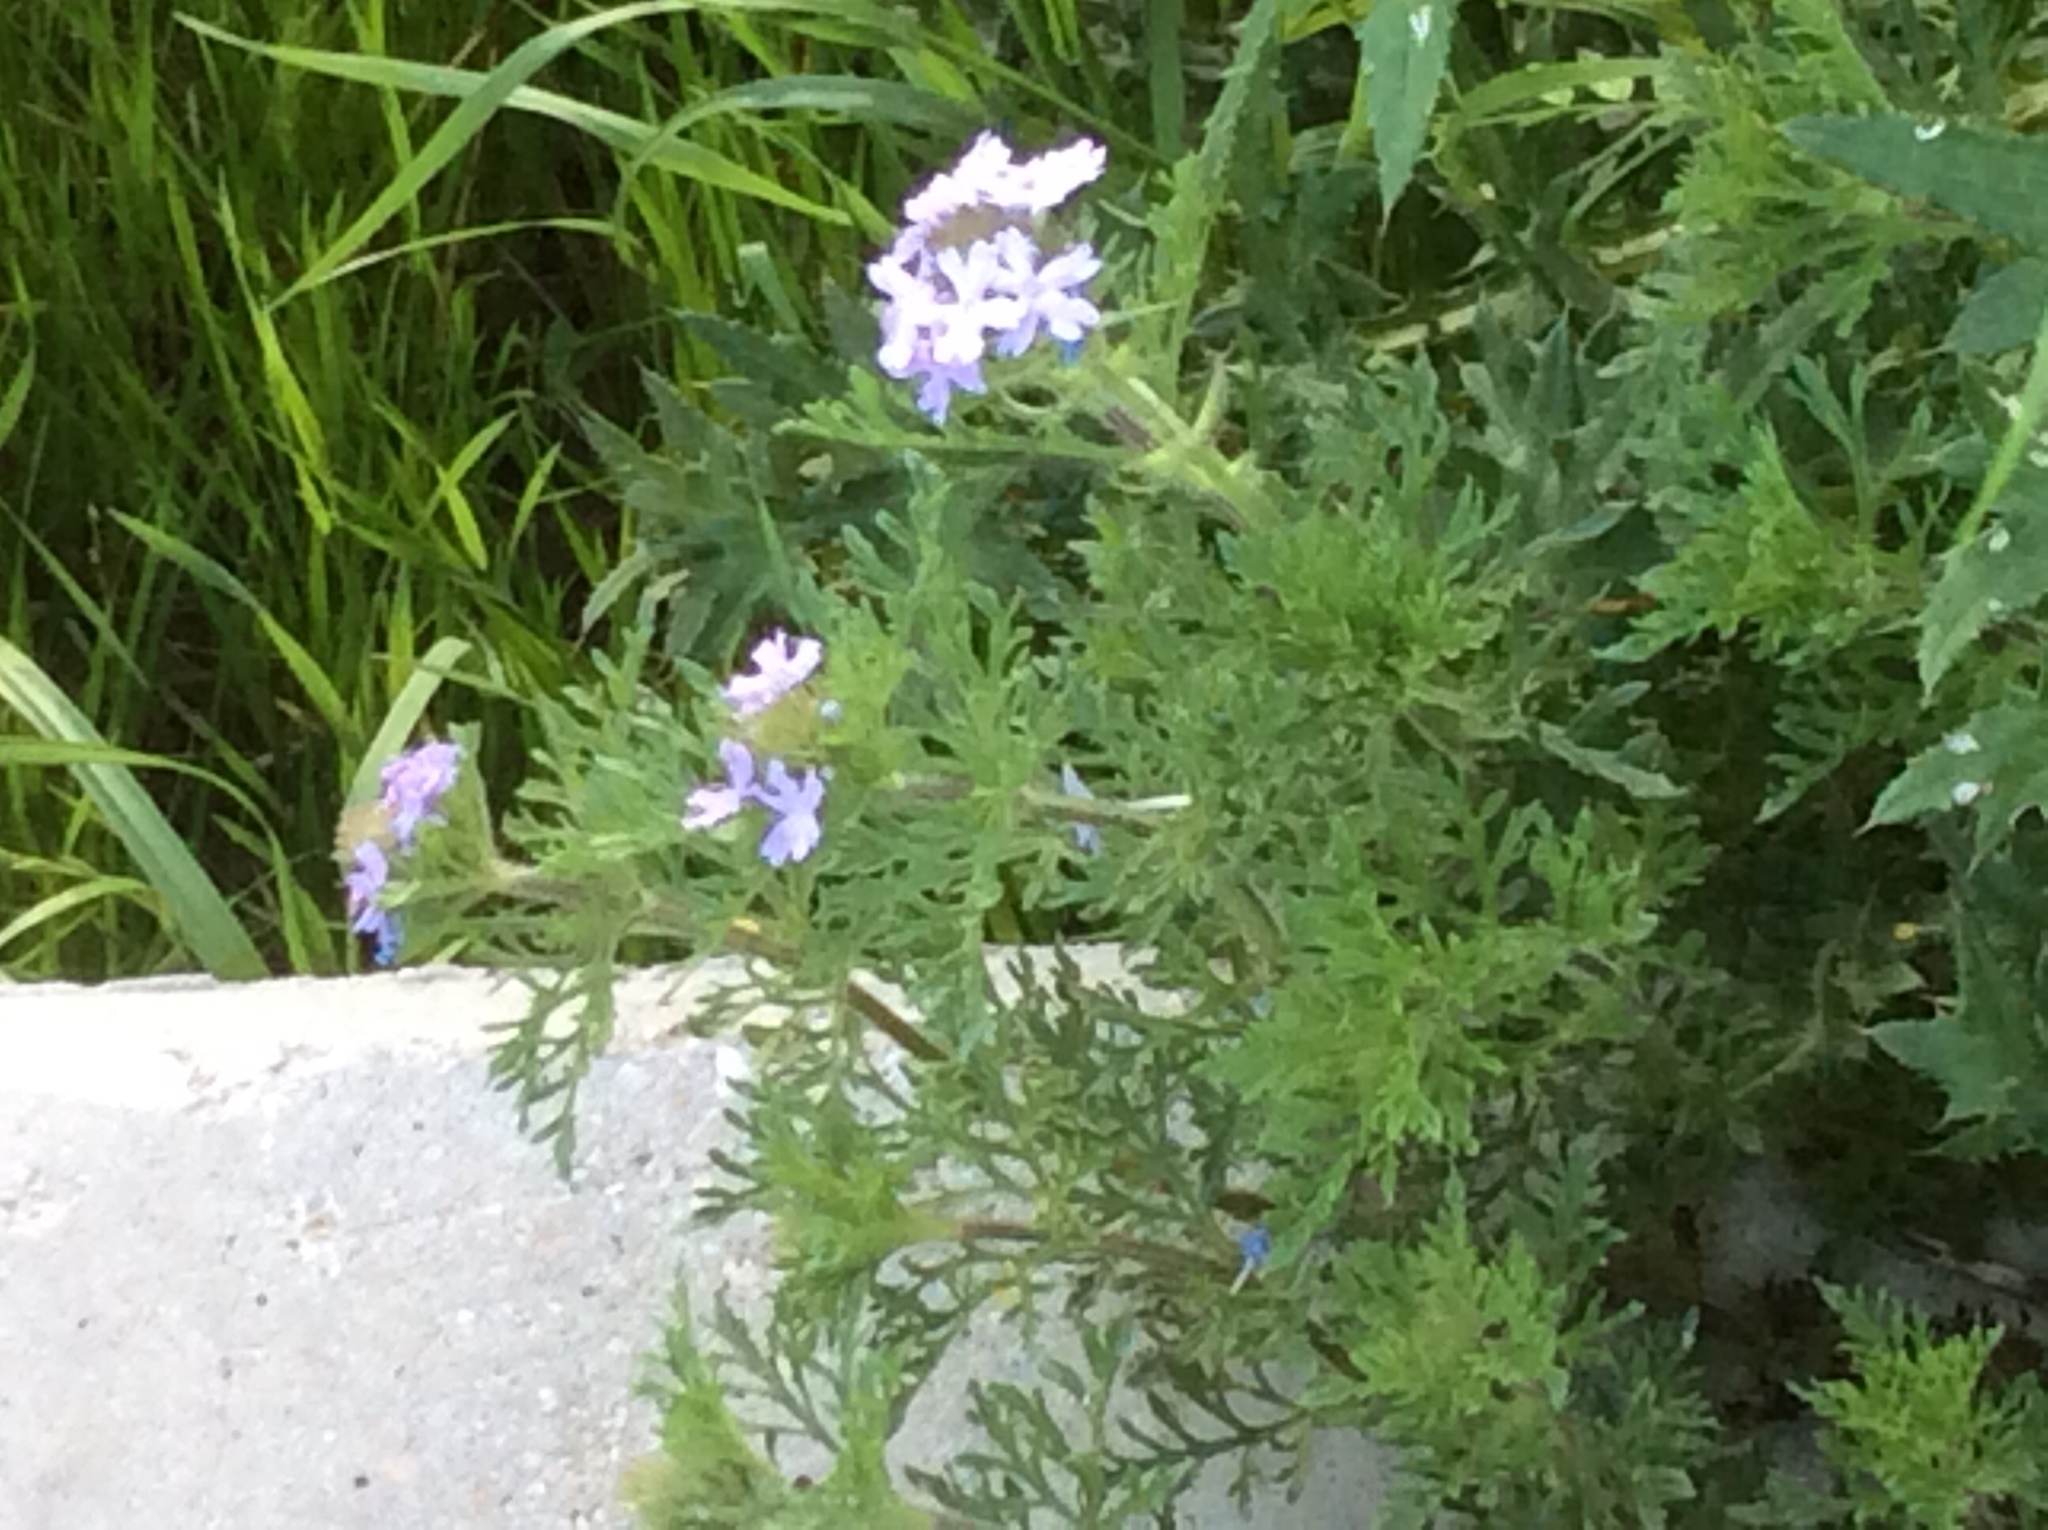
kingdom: Plantae
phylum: Tracheophyta
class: Magnoliopsida
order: Lamiales
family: Verbenaceae
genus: Verbena
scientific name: Verbena bipinnatifida
